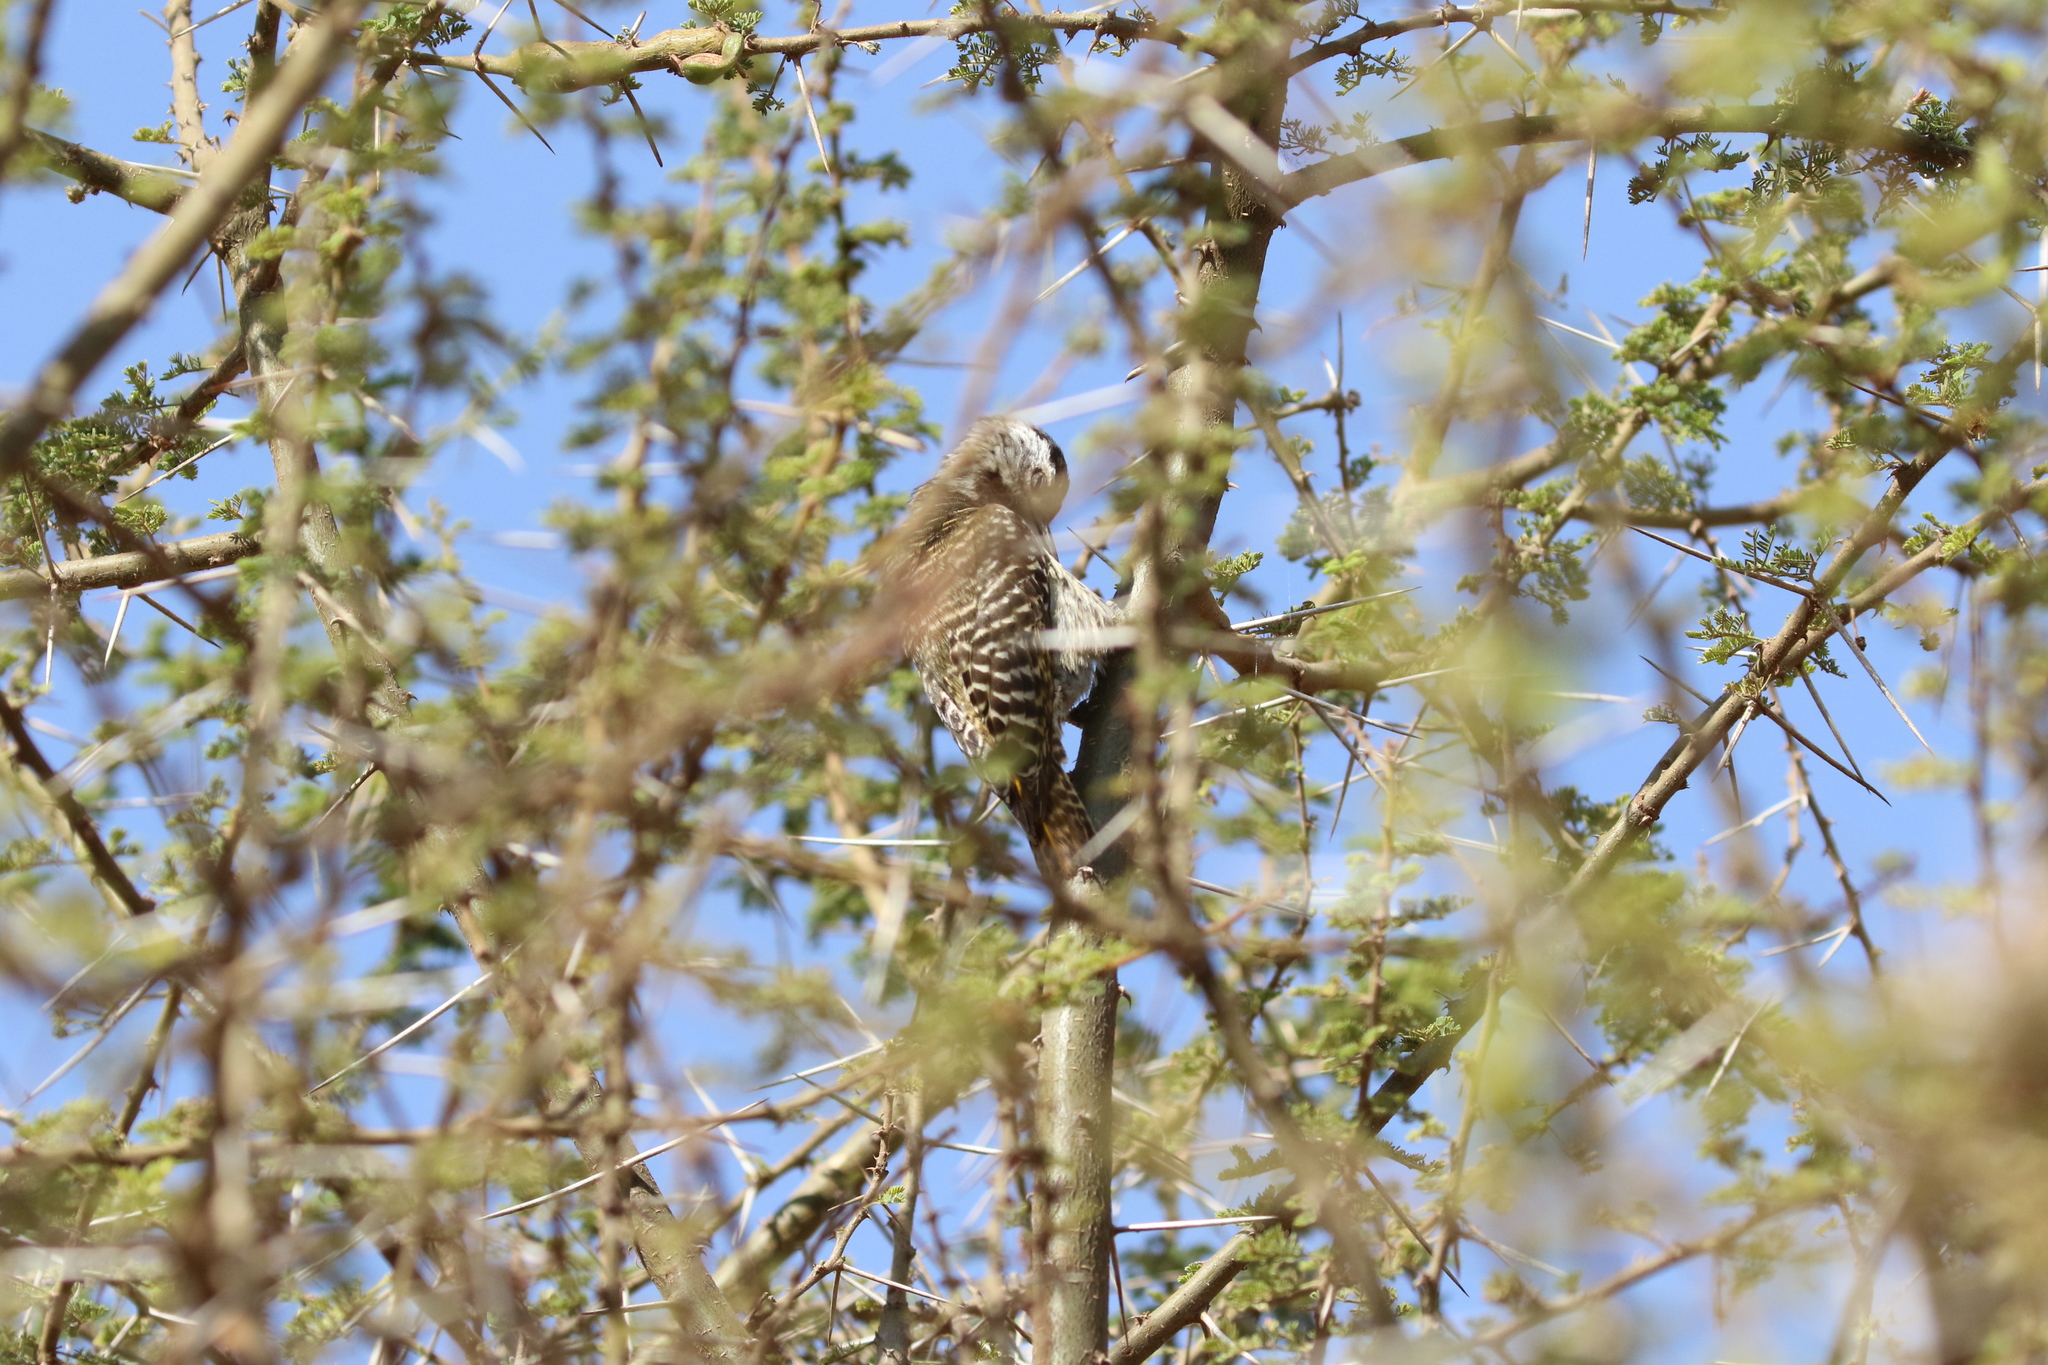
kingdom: Animalia
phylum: Chordata
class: Aves
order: Piciformes
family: Picidae
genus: Dendropicos
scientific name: Dendropicos fuscescens
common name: Cardinal woodpecker
